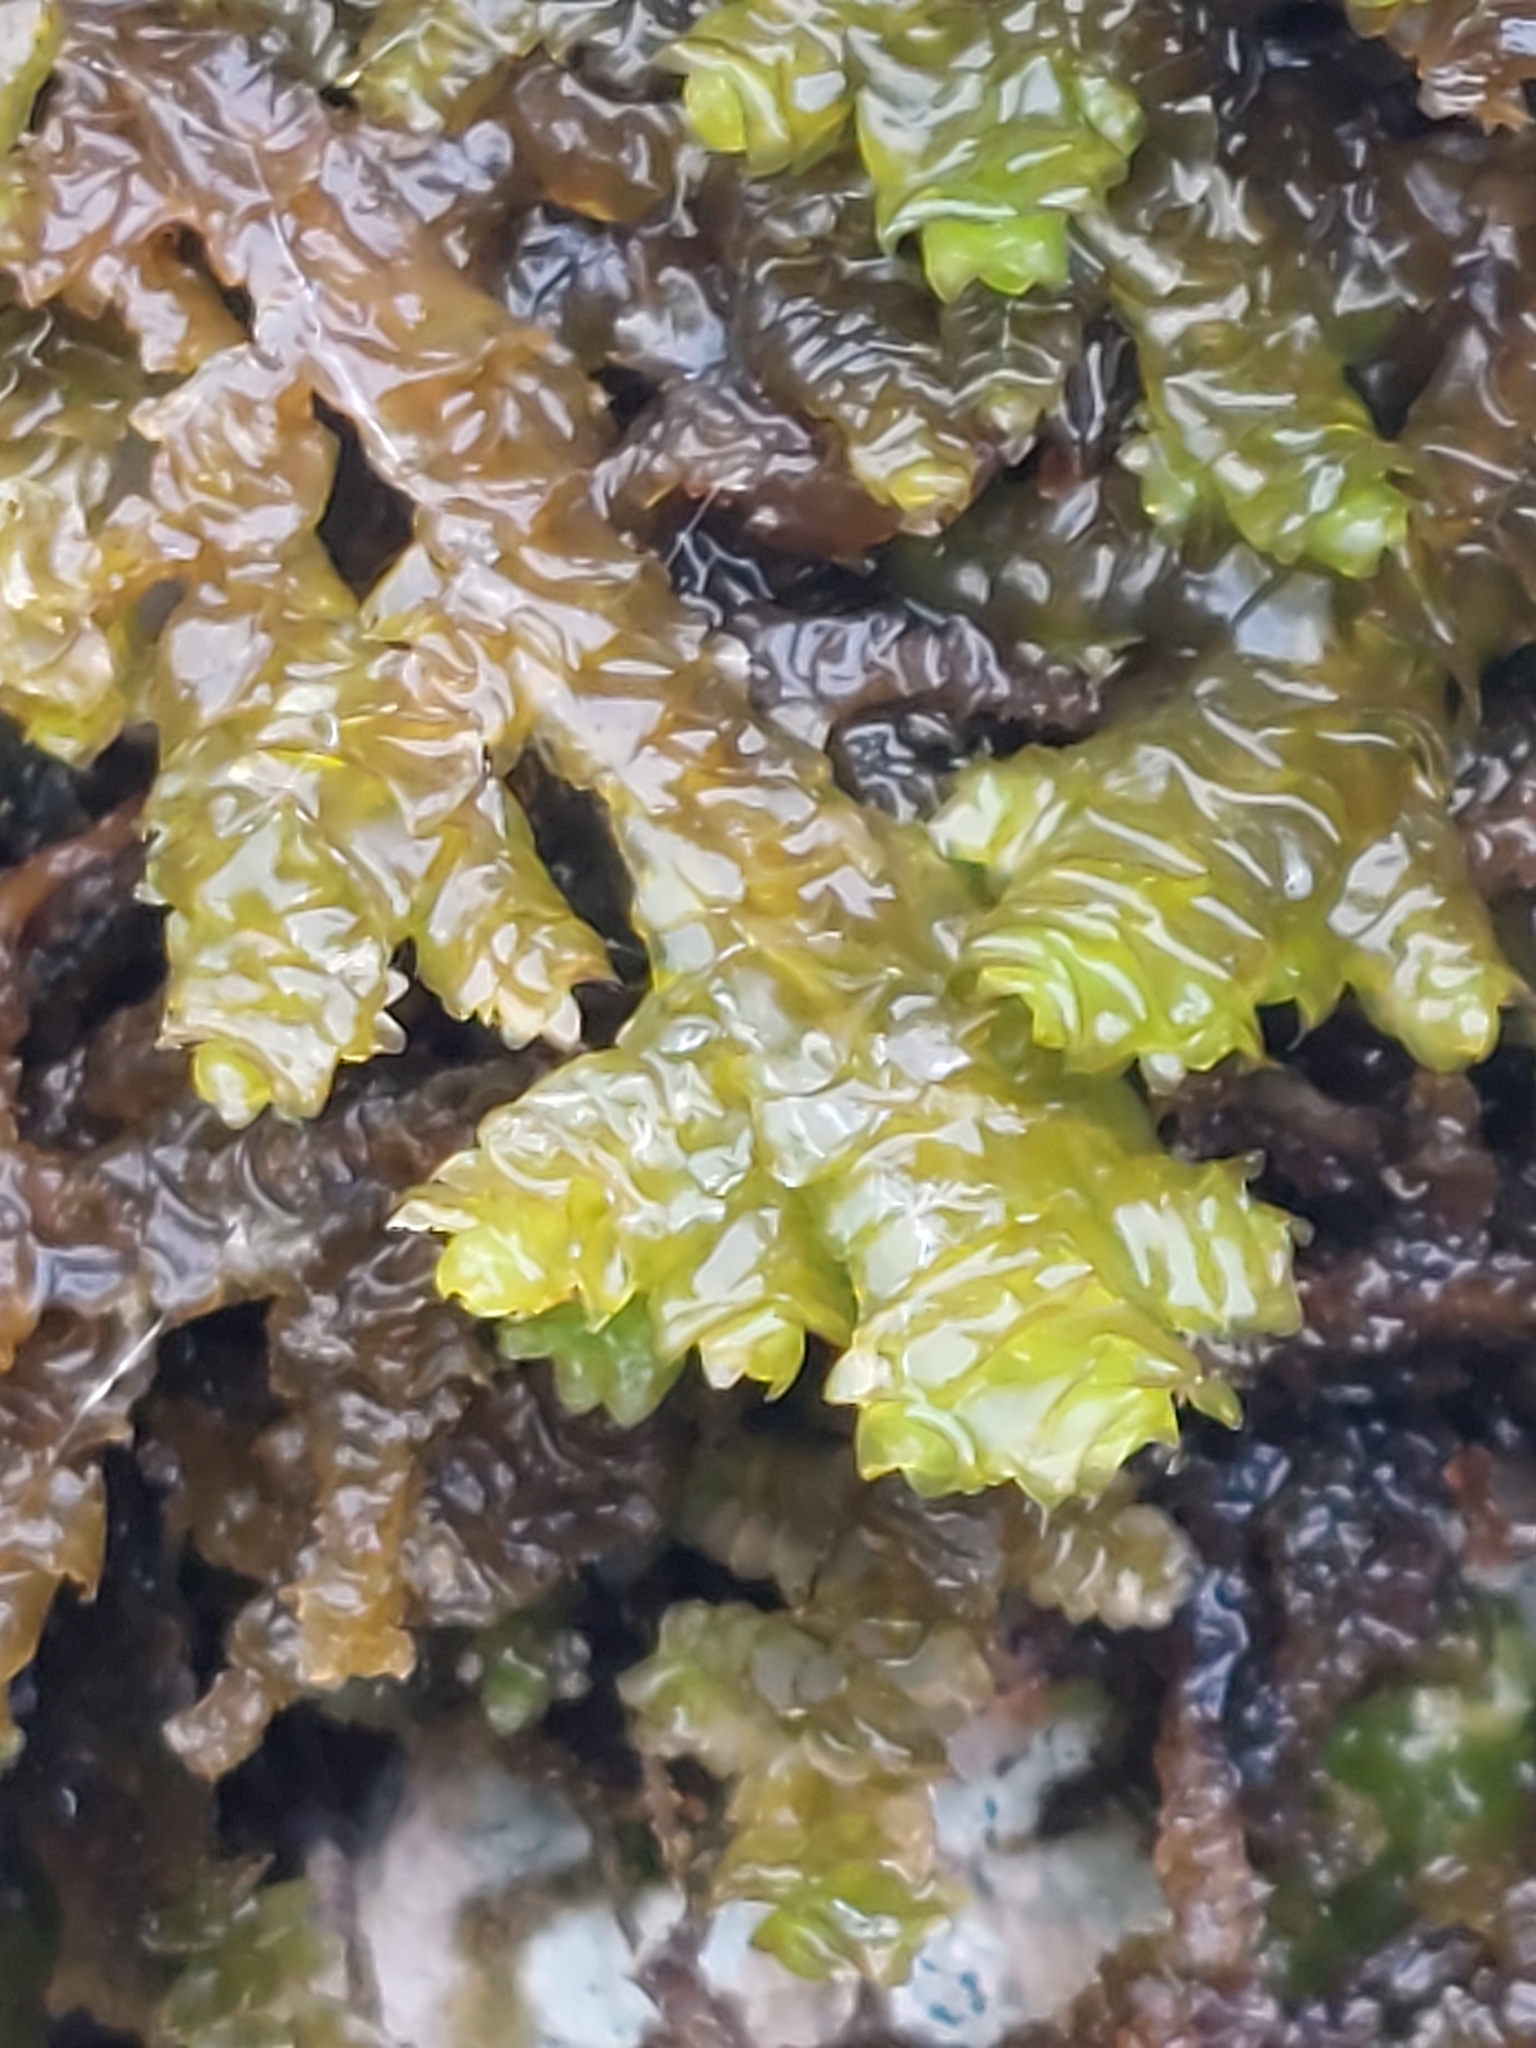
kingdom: Plantae
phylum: Marchantiophyta
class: Jungermanniopsida
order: Porellales
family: Porellaceae
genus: Porella
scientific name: Porella platyphylla
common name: Wall scalewort
